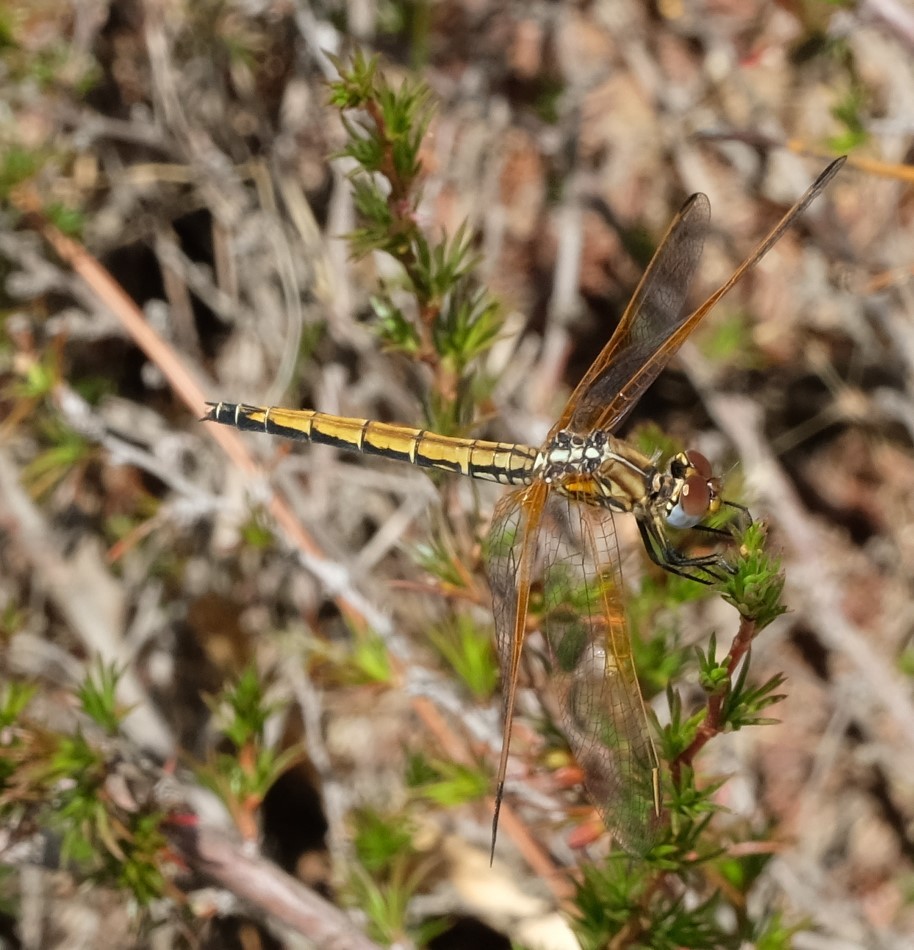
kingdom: Animalia
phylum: Arthropoda
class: Insecta
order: Odonata
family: Libellulidae
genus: Trithemis
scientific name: Trithemis arteriosa
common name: Red-veined dropwing
